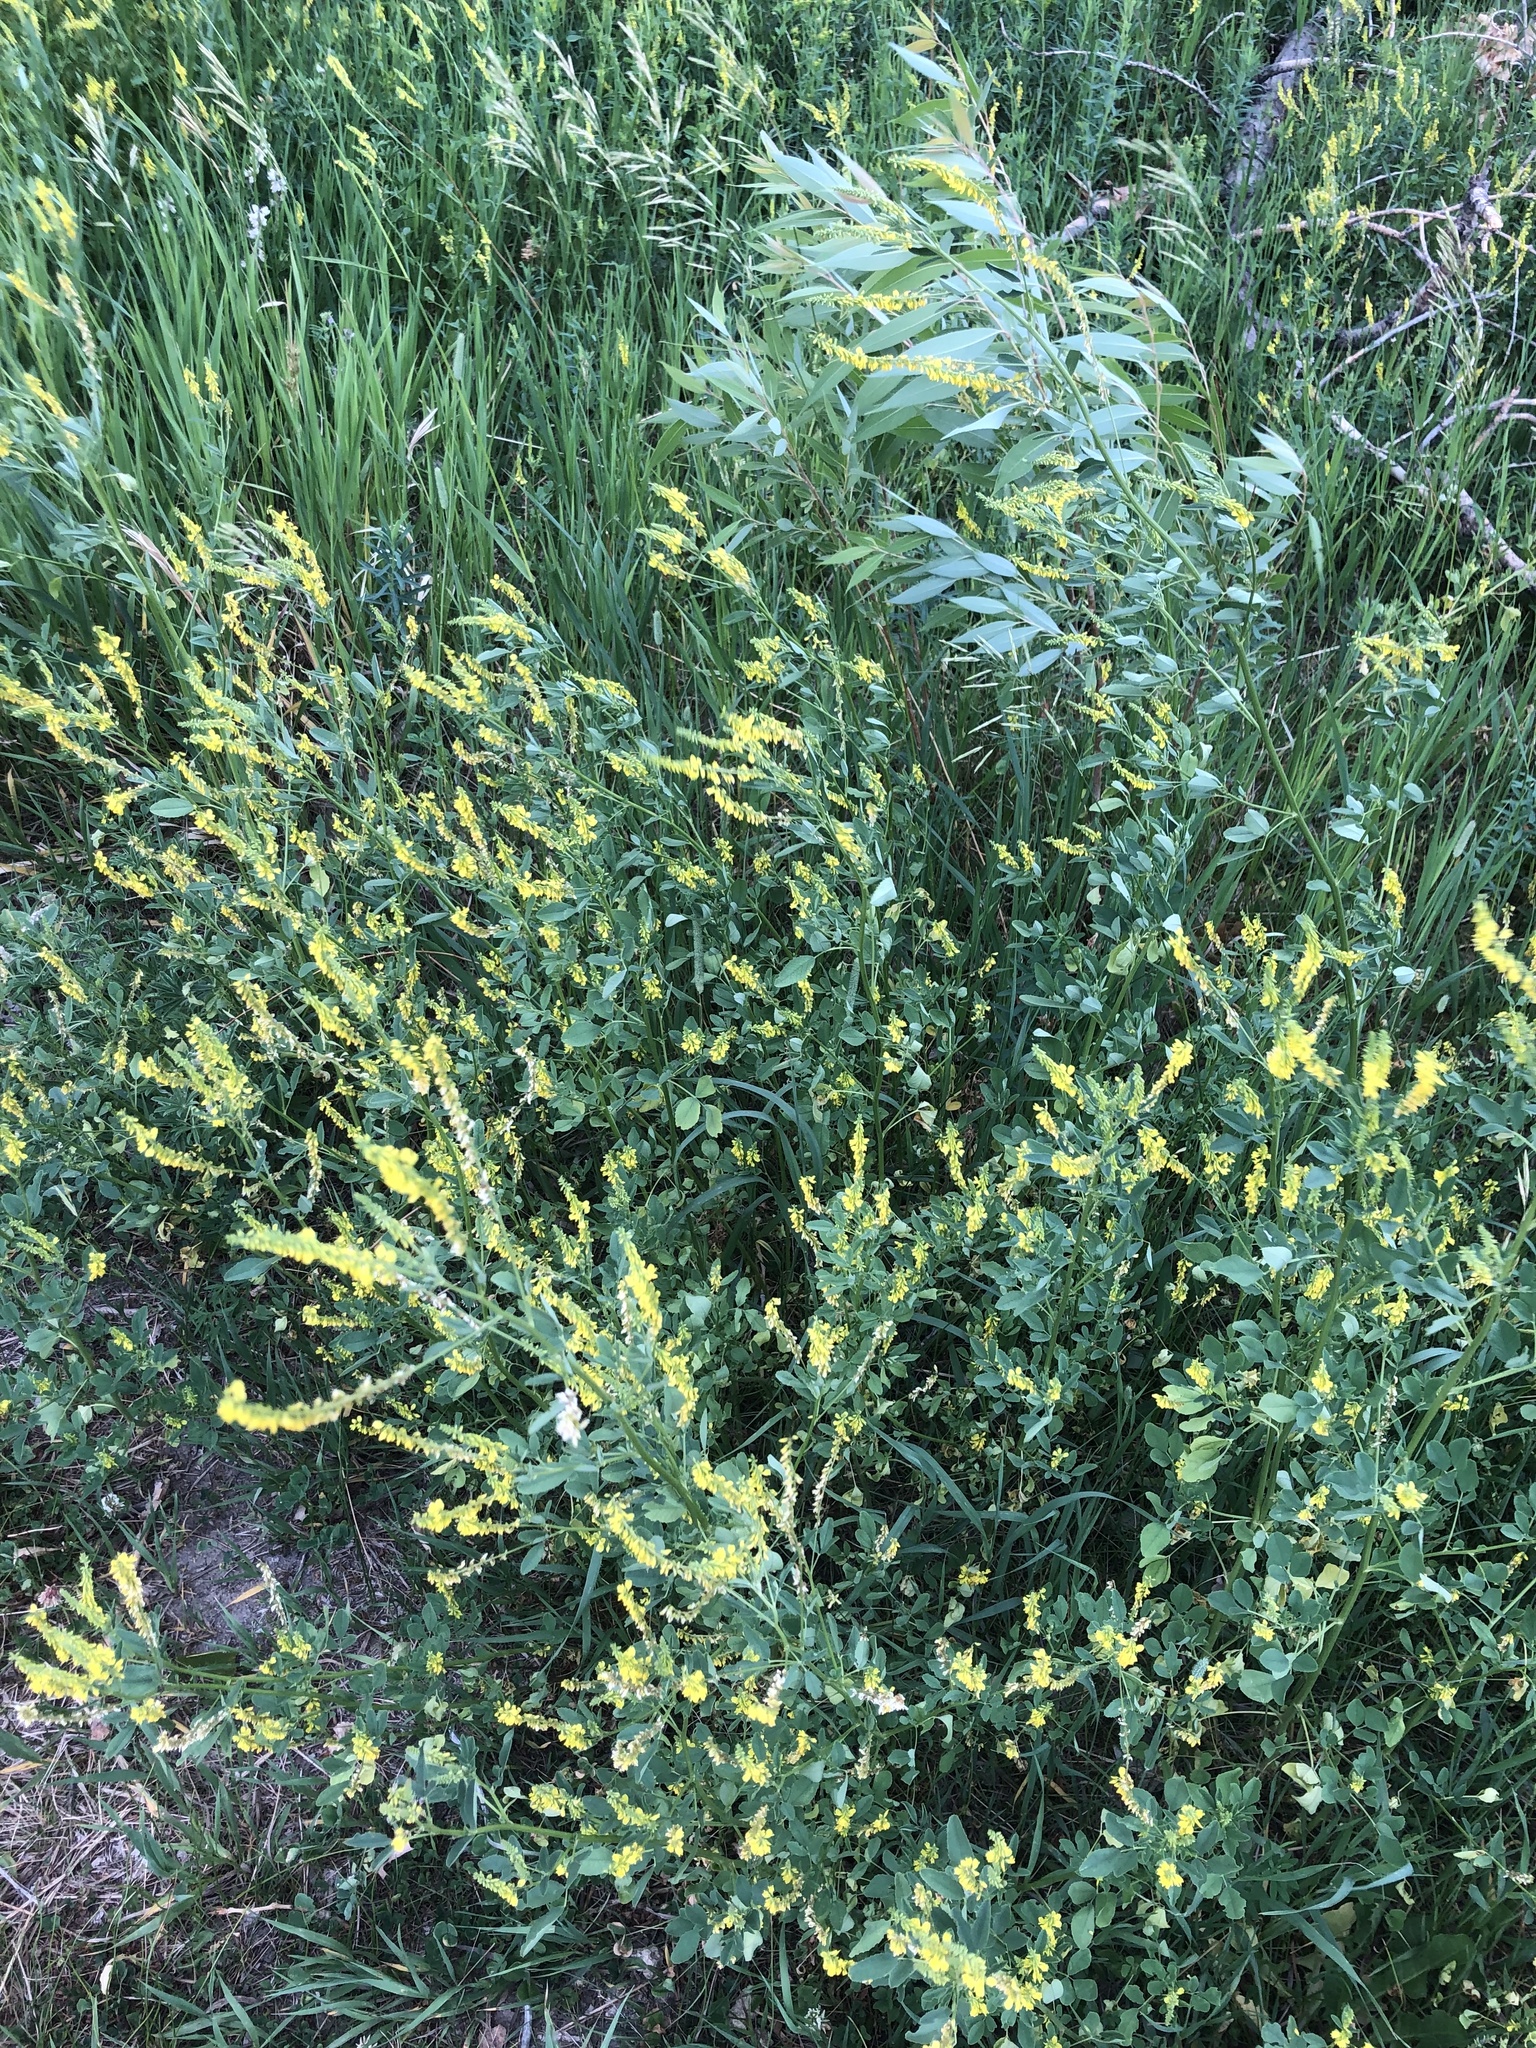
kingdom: Plantae
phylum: Tracheophyta
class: Magnoliopsida
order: Fabales
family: Fabaceae
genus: Melilotus
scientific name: Melilotus officinalis
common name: Sweetclover
